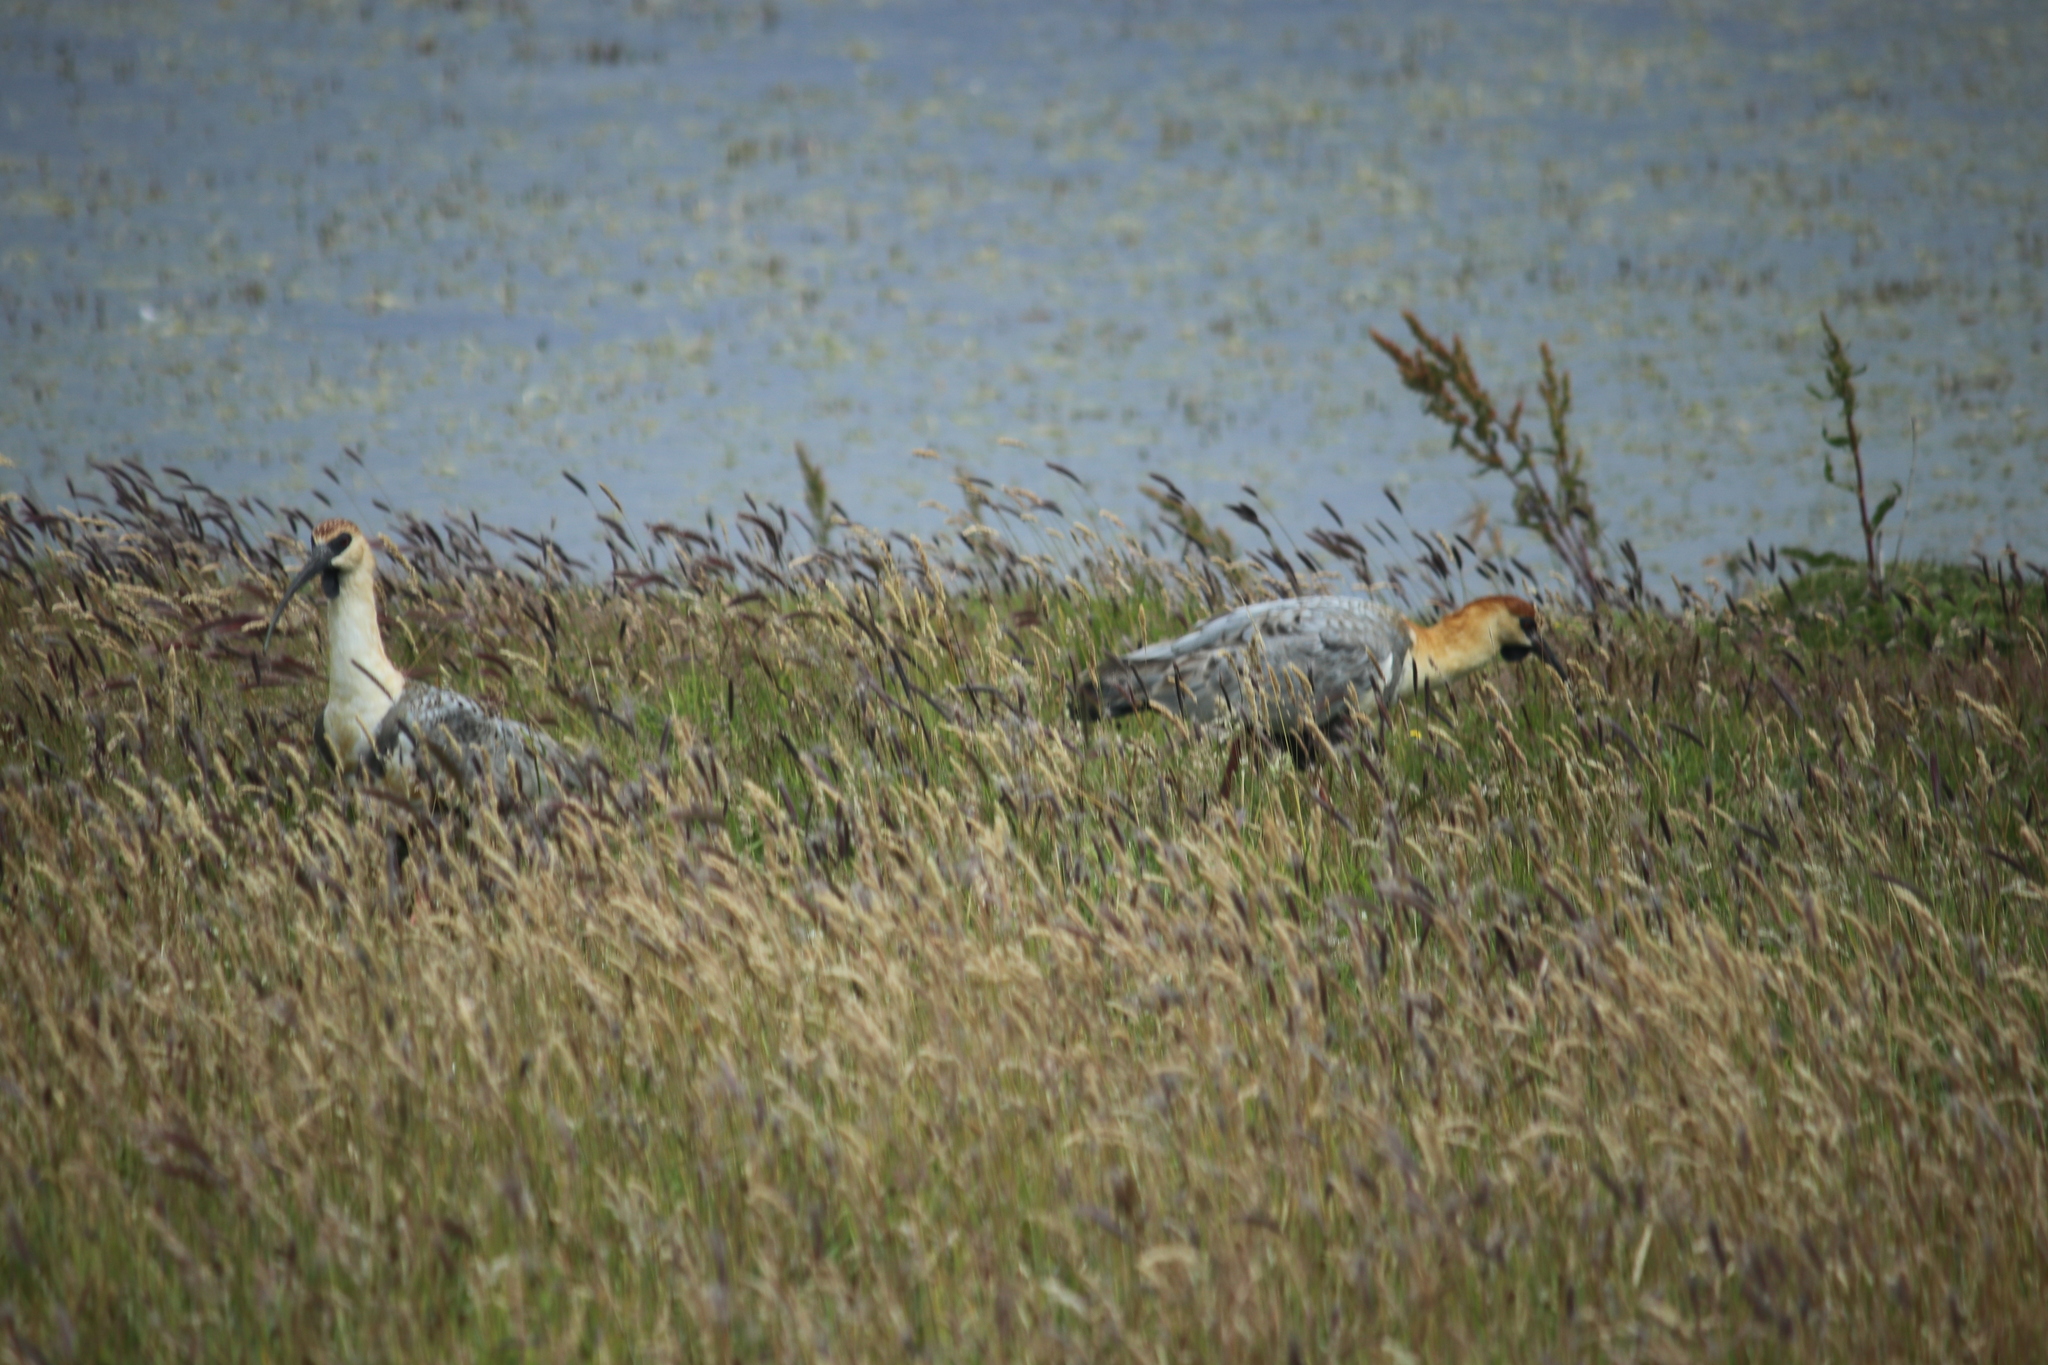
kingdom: Animalia
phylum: Chordata
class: Aves
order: Pelecaniformes
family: Threskiornithidae
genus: Theristicus
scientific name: Theristicus melanopis
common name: Black-faced ibis
